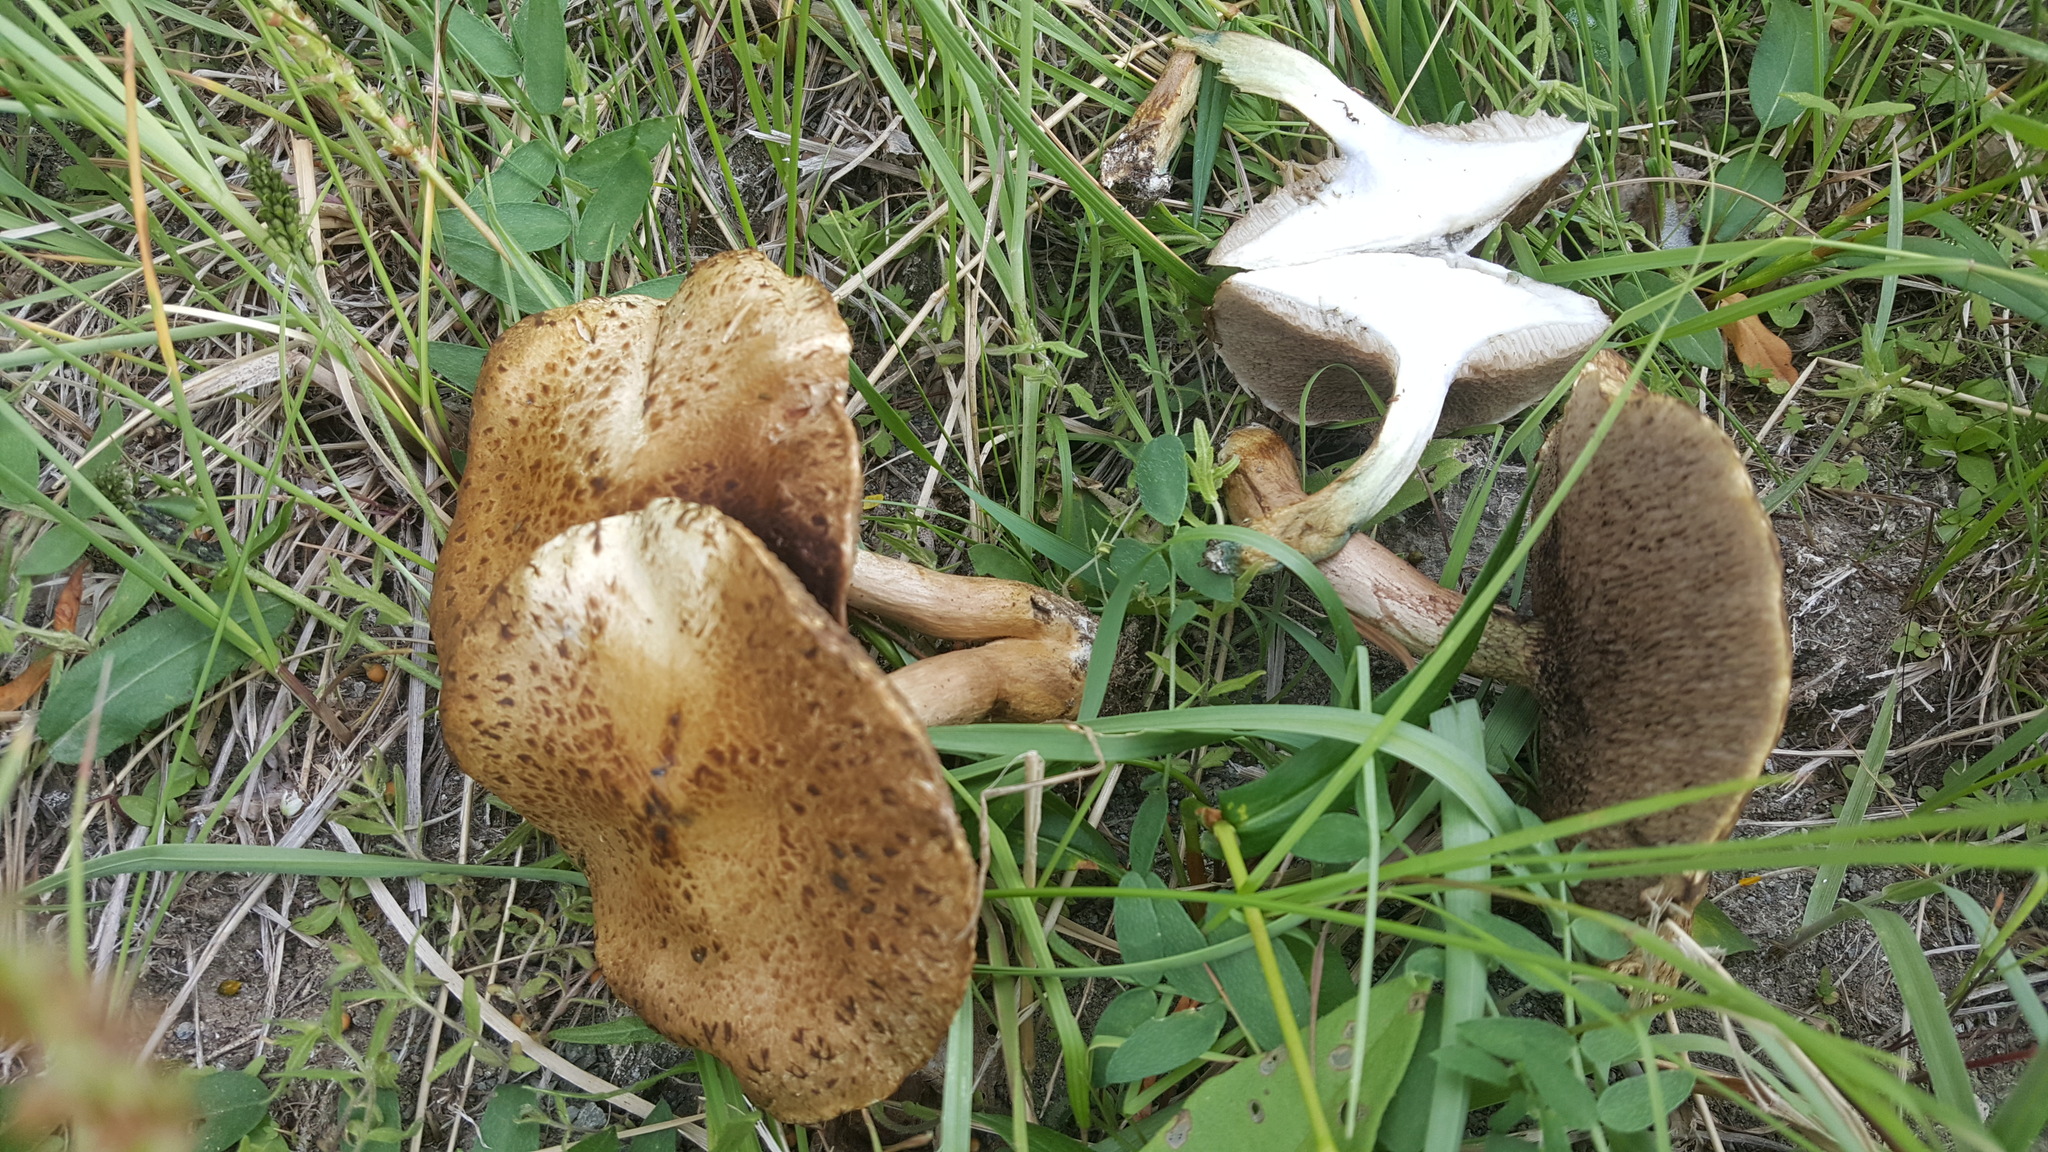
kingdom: Fungi
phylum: Basidiomycota
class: Agaricomycetes
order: Boletales
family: Suillaceae
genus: Suillus
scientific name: Suillus viscidus
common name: Sticky bolete
